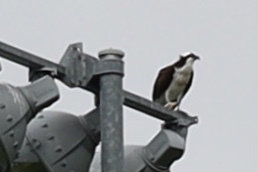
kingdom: Animalia
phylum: Chordata
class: Aves
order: Accipitriformes
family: Pandionidae
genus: Pandion
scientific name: Pandion haliaetus
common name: Osprey
